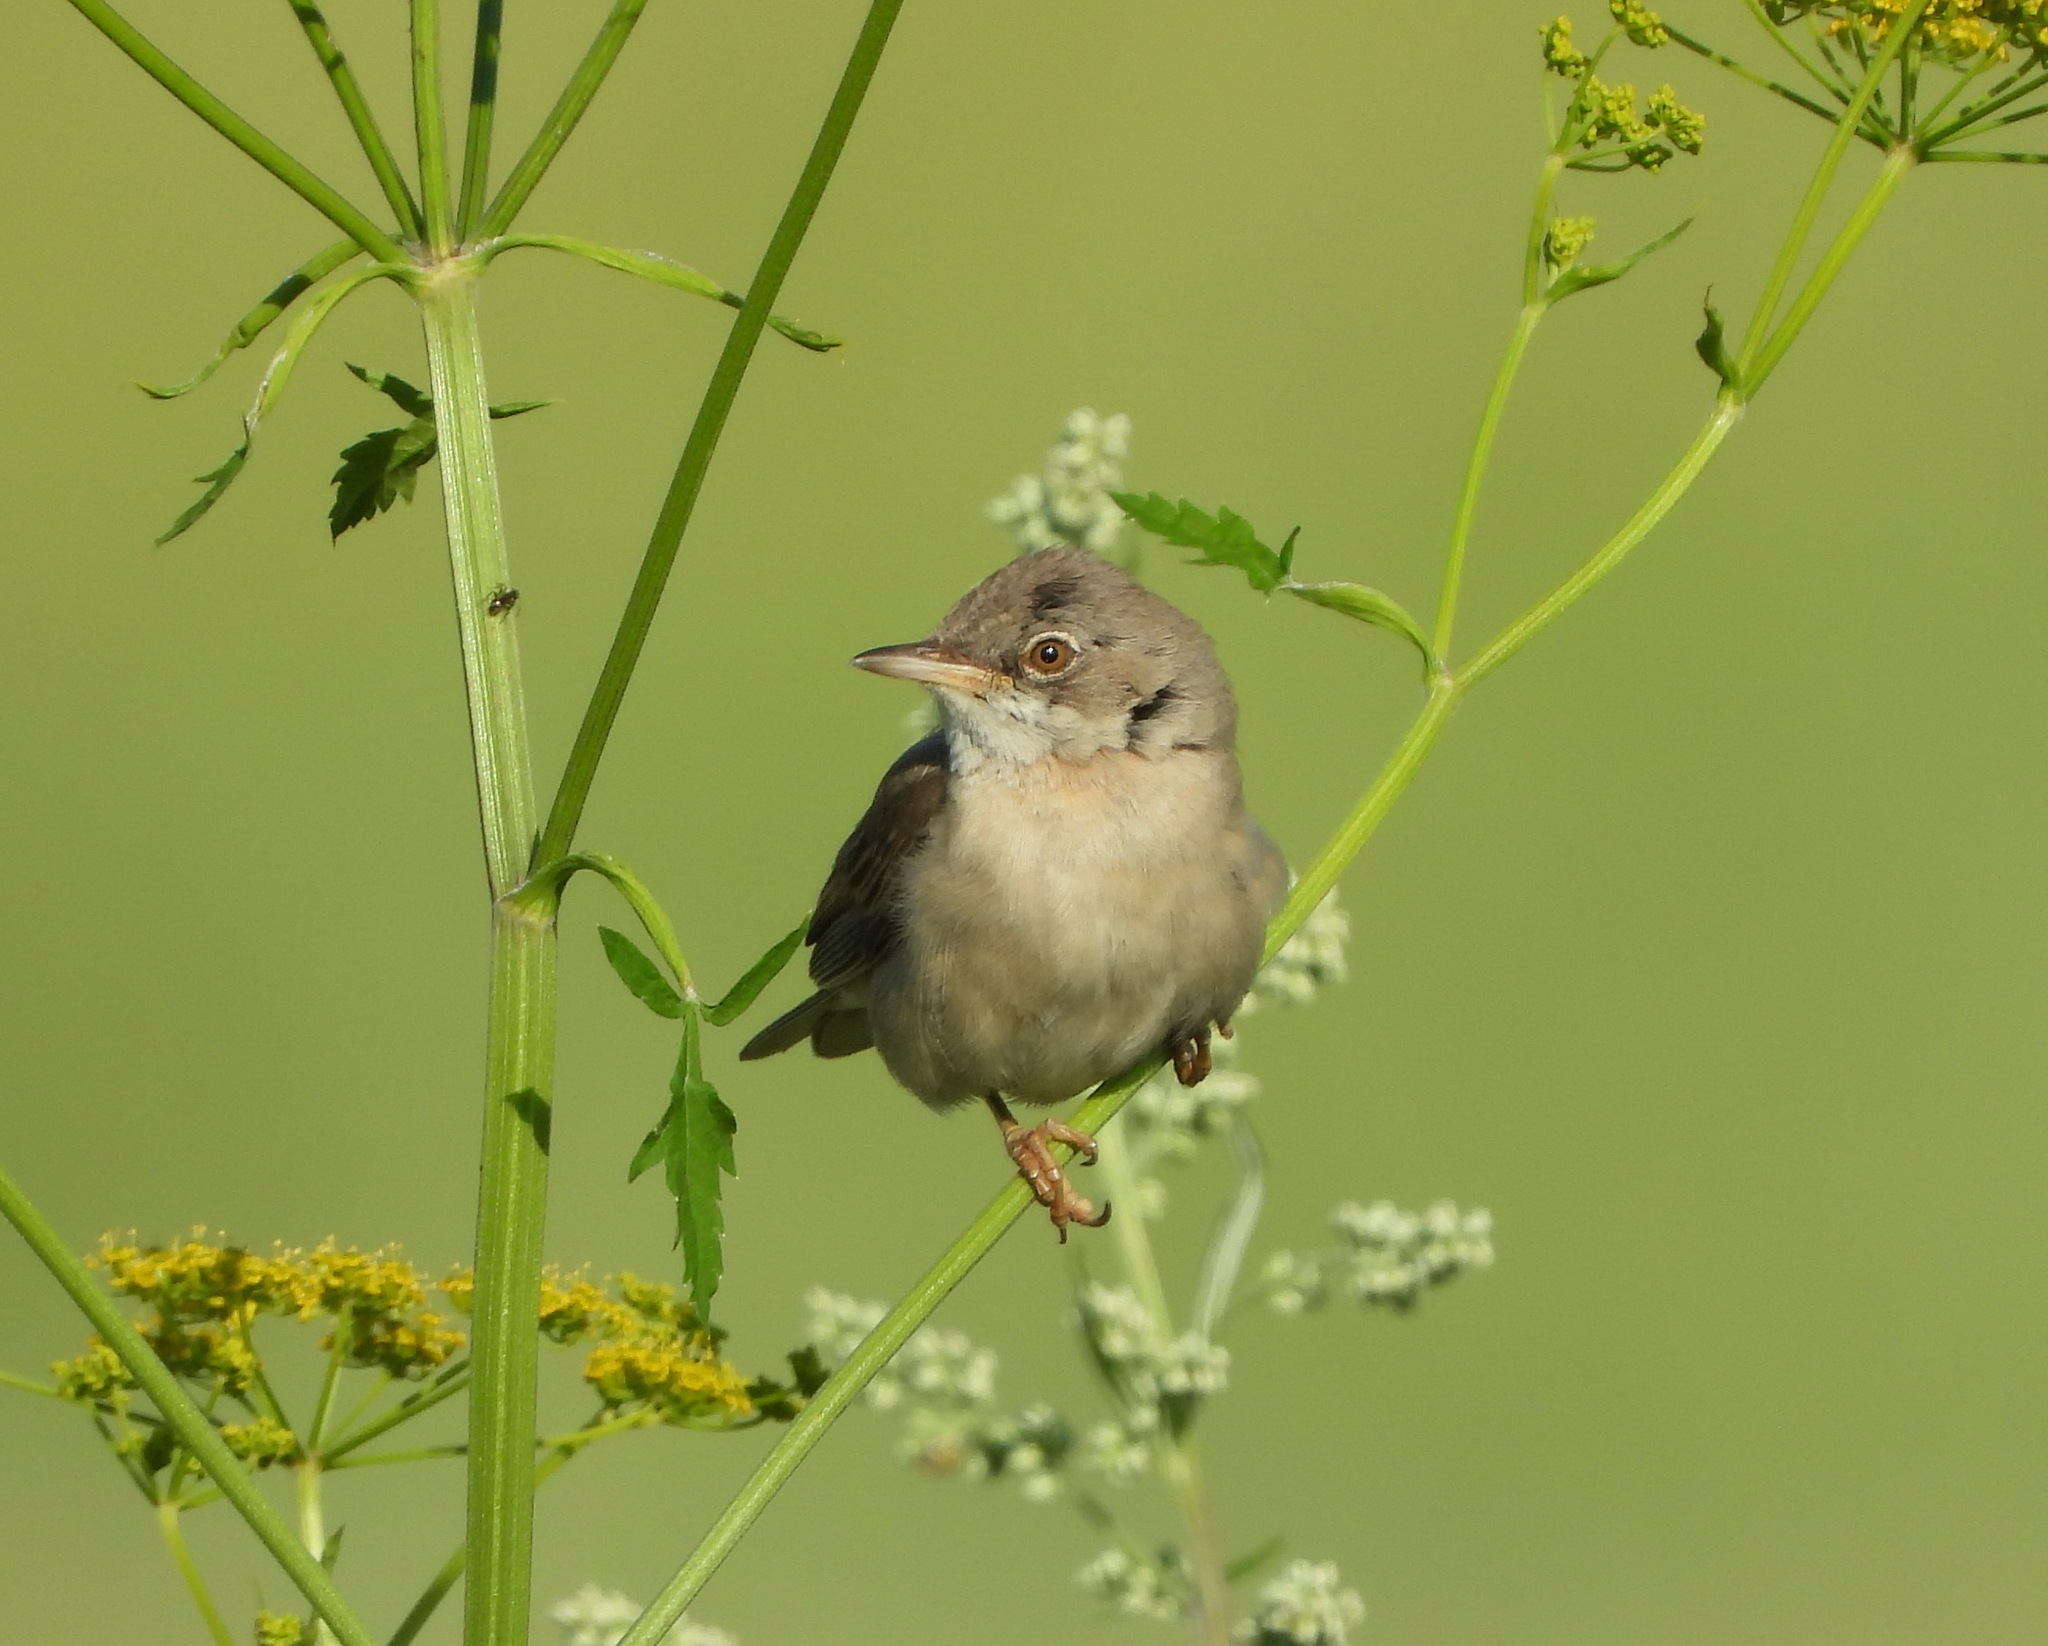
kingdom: Animalia
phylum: Chordata
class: Aves
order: Passeriformes
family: Sylviidae
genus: Sylvia
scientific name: Sylvia communis
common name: Common whitethroat
